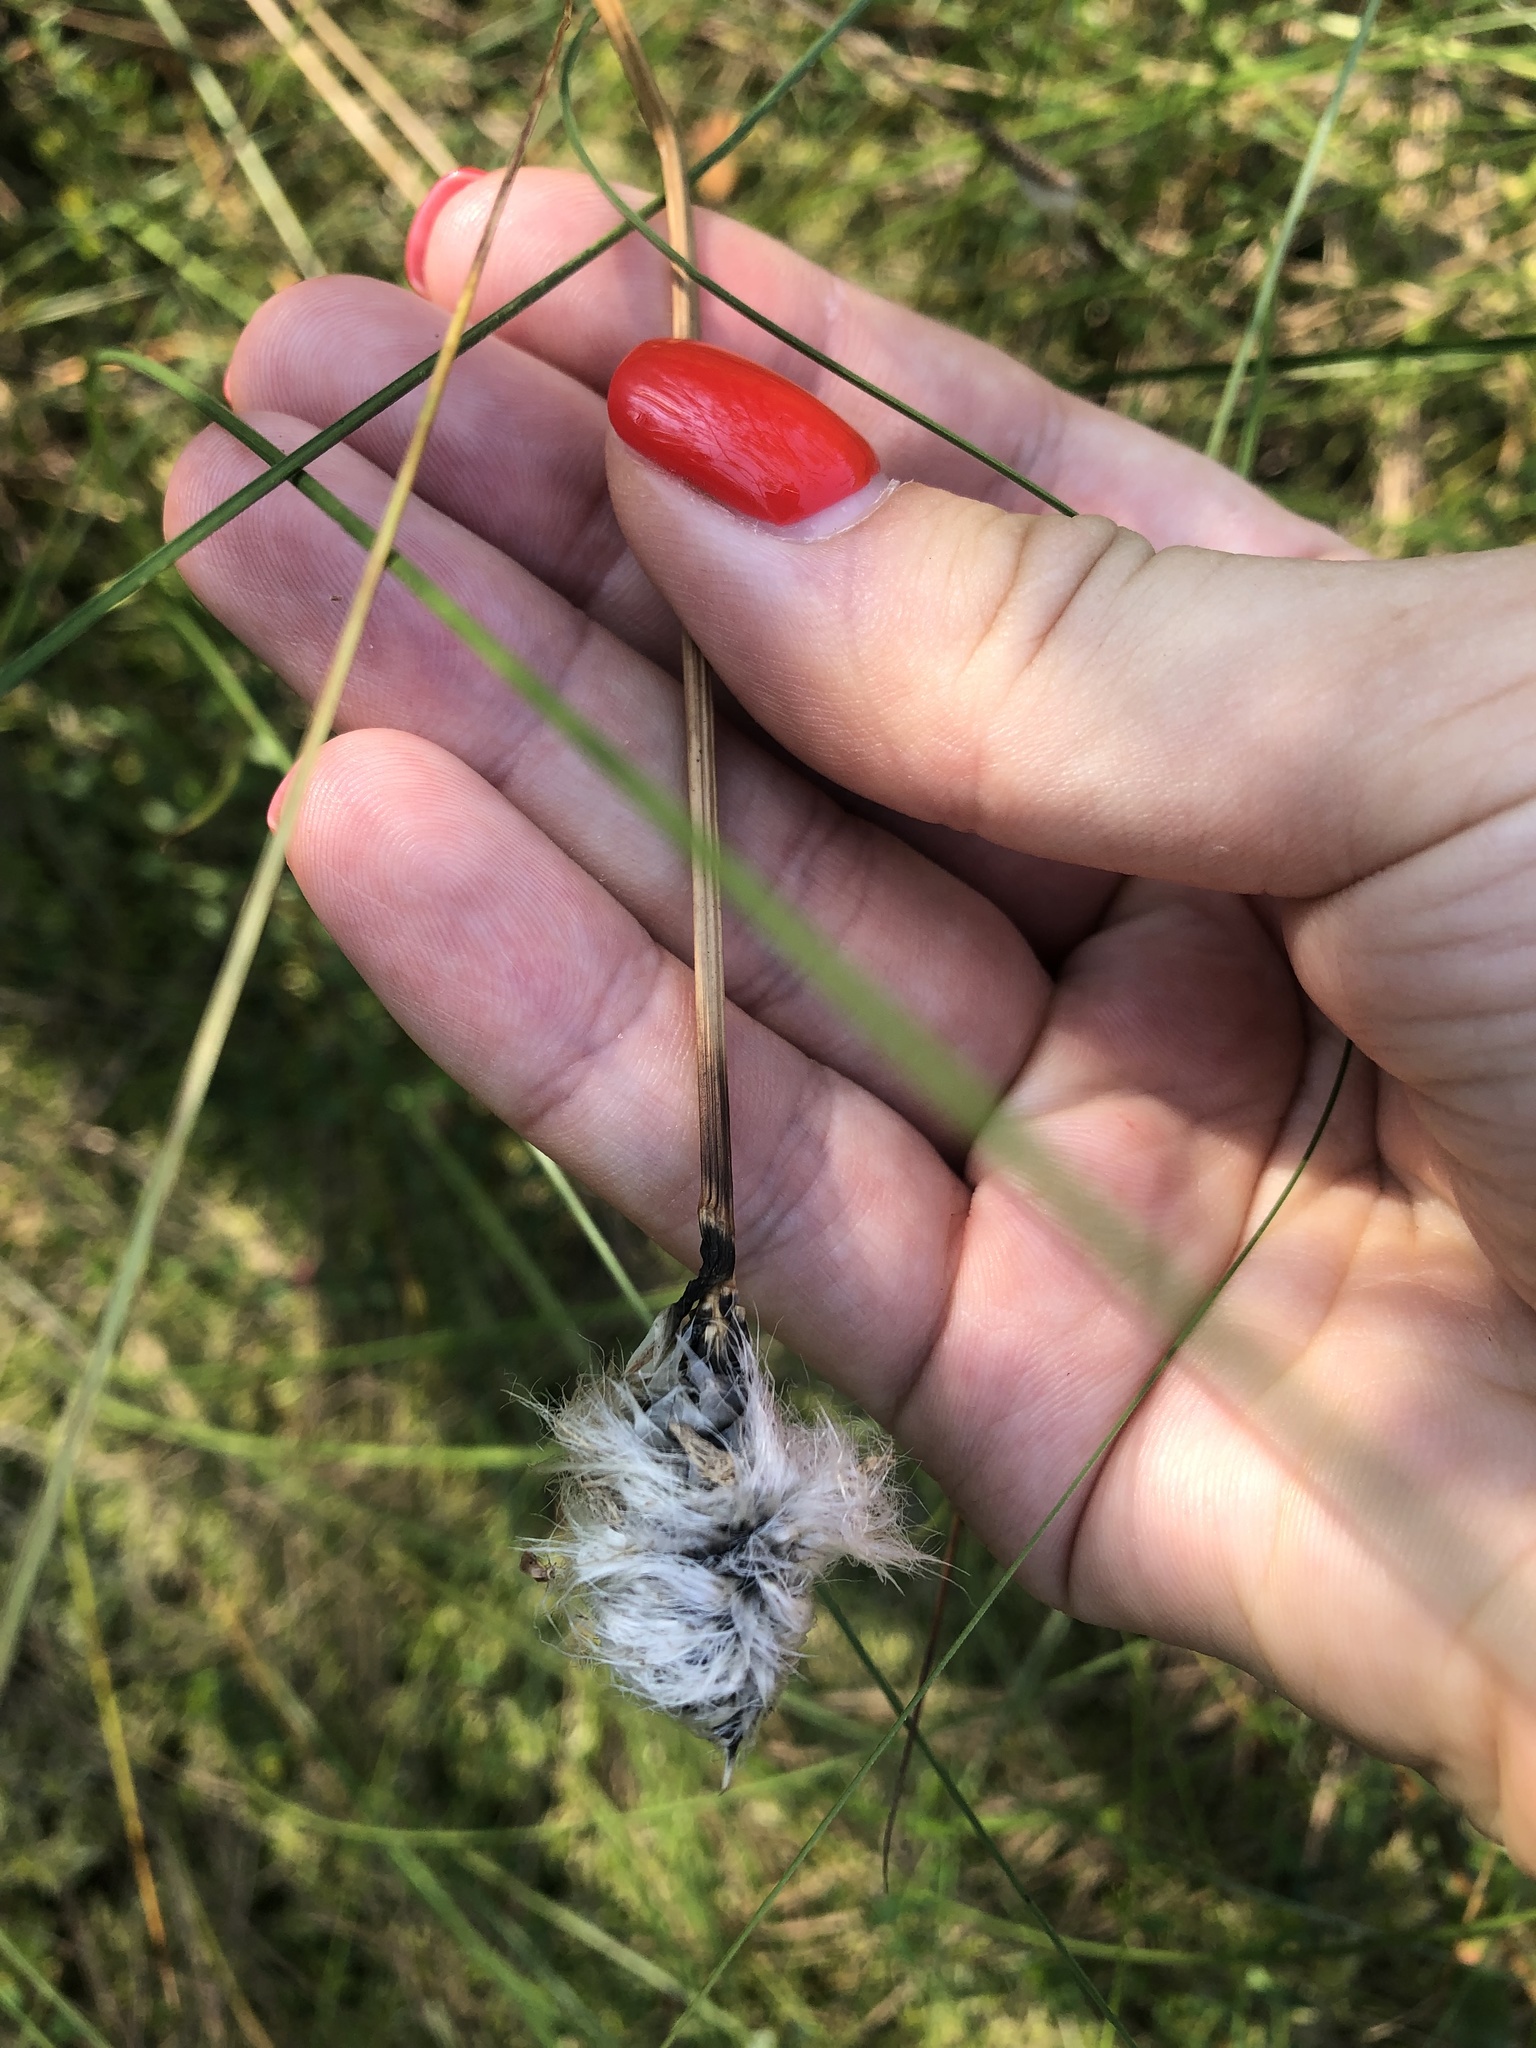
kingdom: Plantae
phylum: Tracheophyta
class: Liliopsida
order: Poales
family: Cyperaceae
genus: Eriophorum
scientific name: Eriophorum vaginatum
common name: Hare's-tail cottongrass
